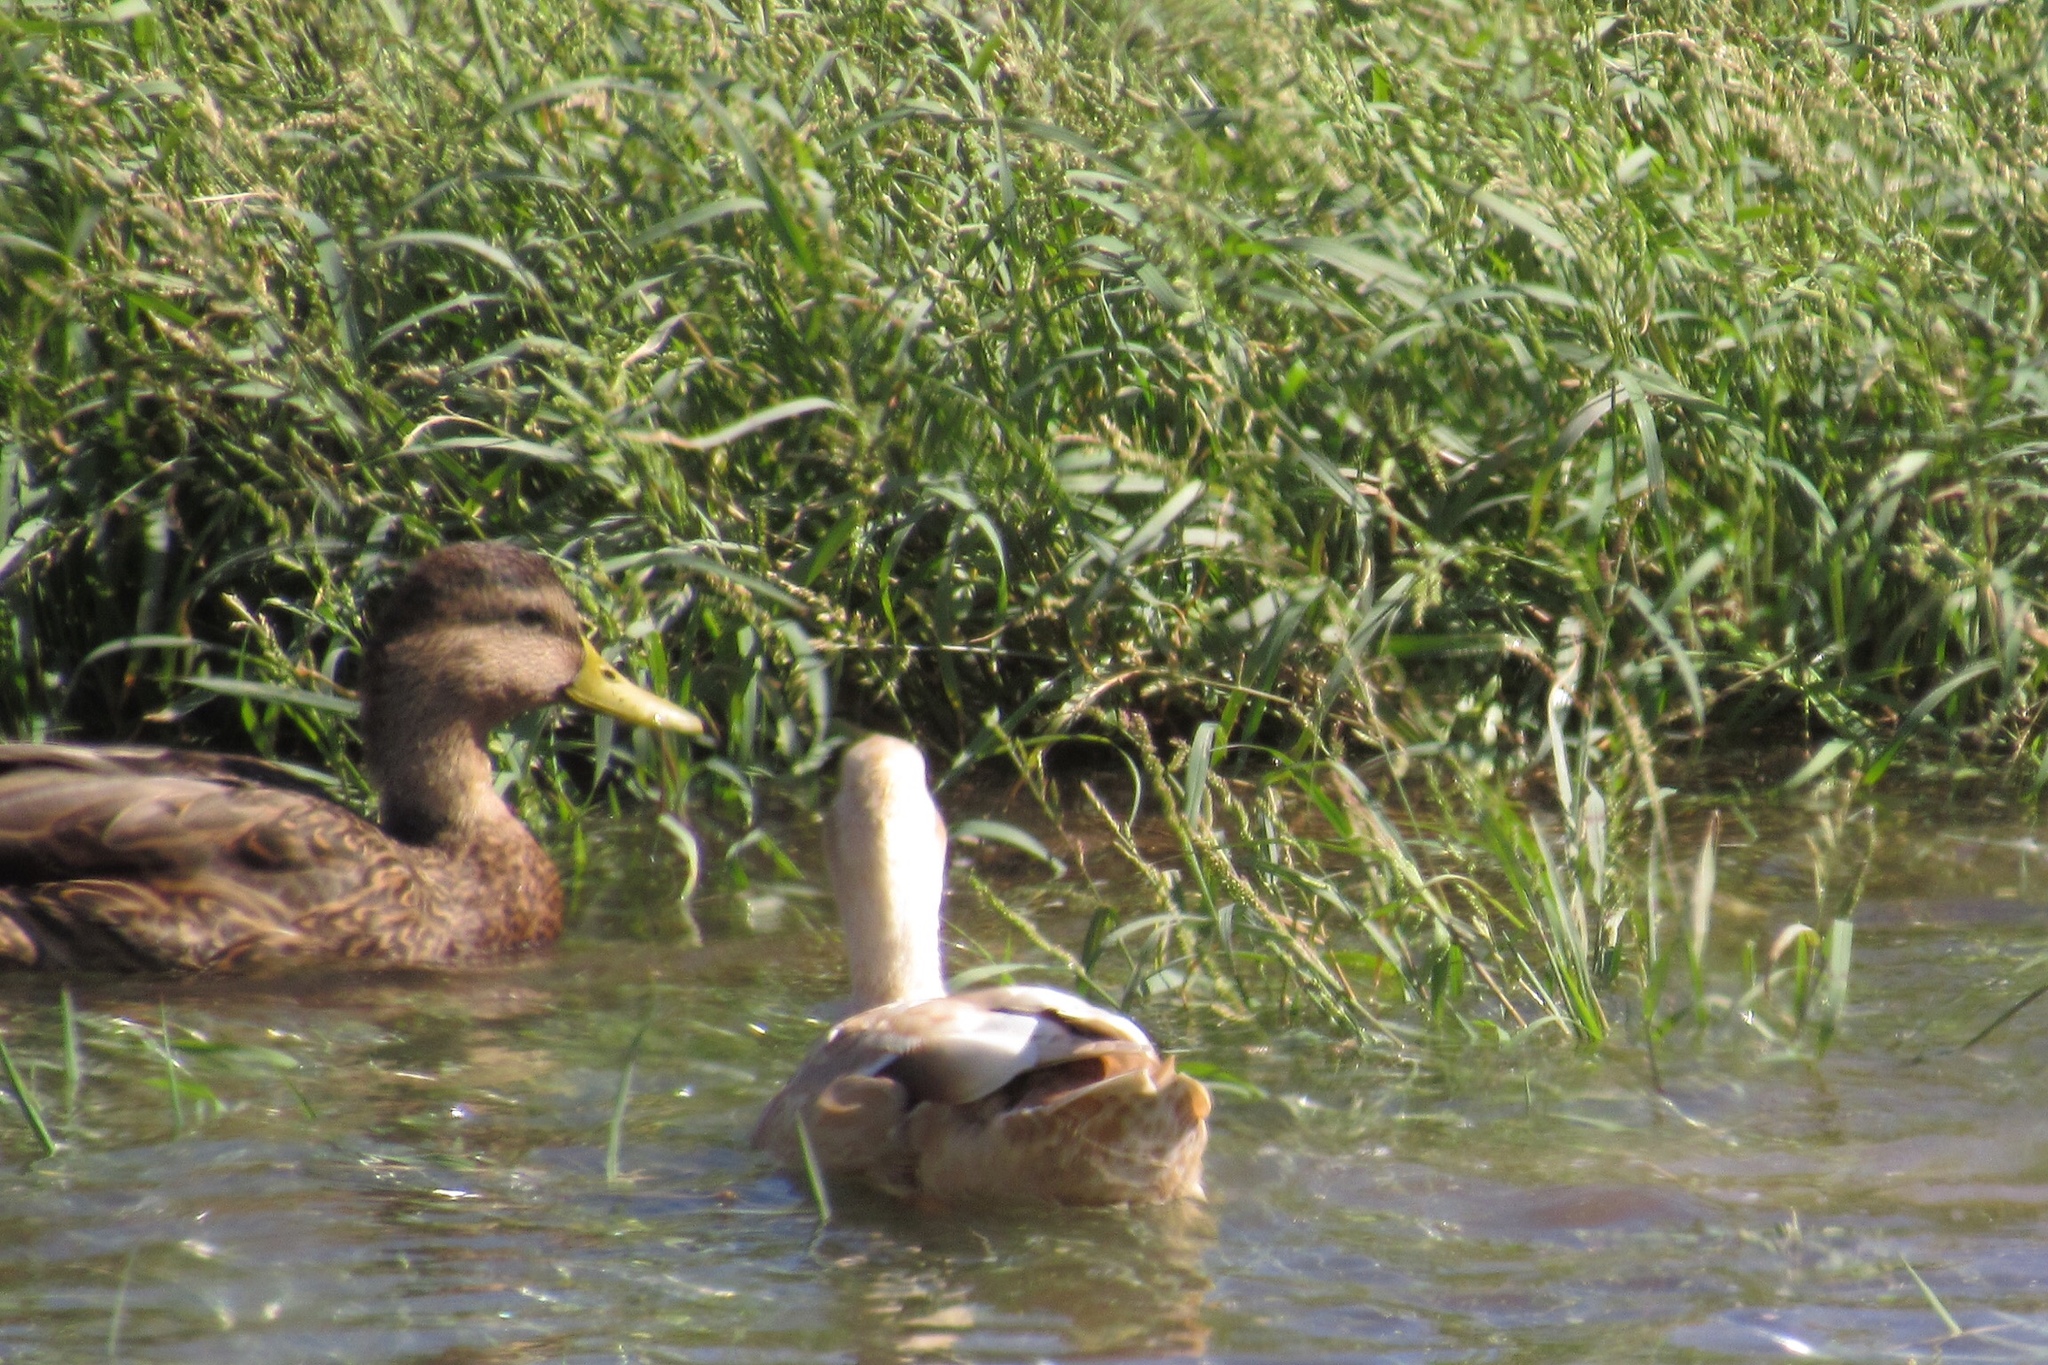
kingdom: Animalia
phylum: Chordata
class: Aves
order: Anseriformes
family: Anatidae
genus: Anas
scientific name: Anas platyrhynchos
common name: Mallard
